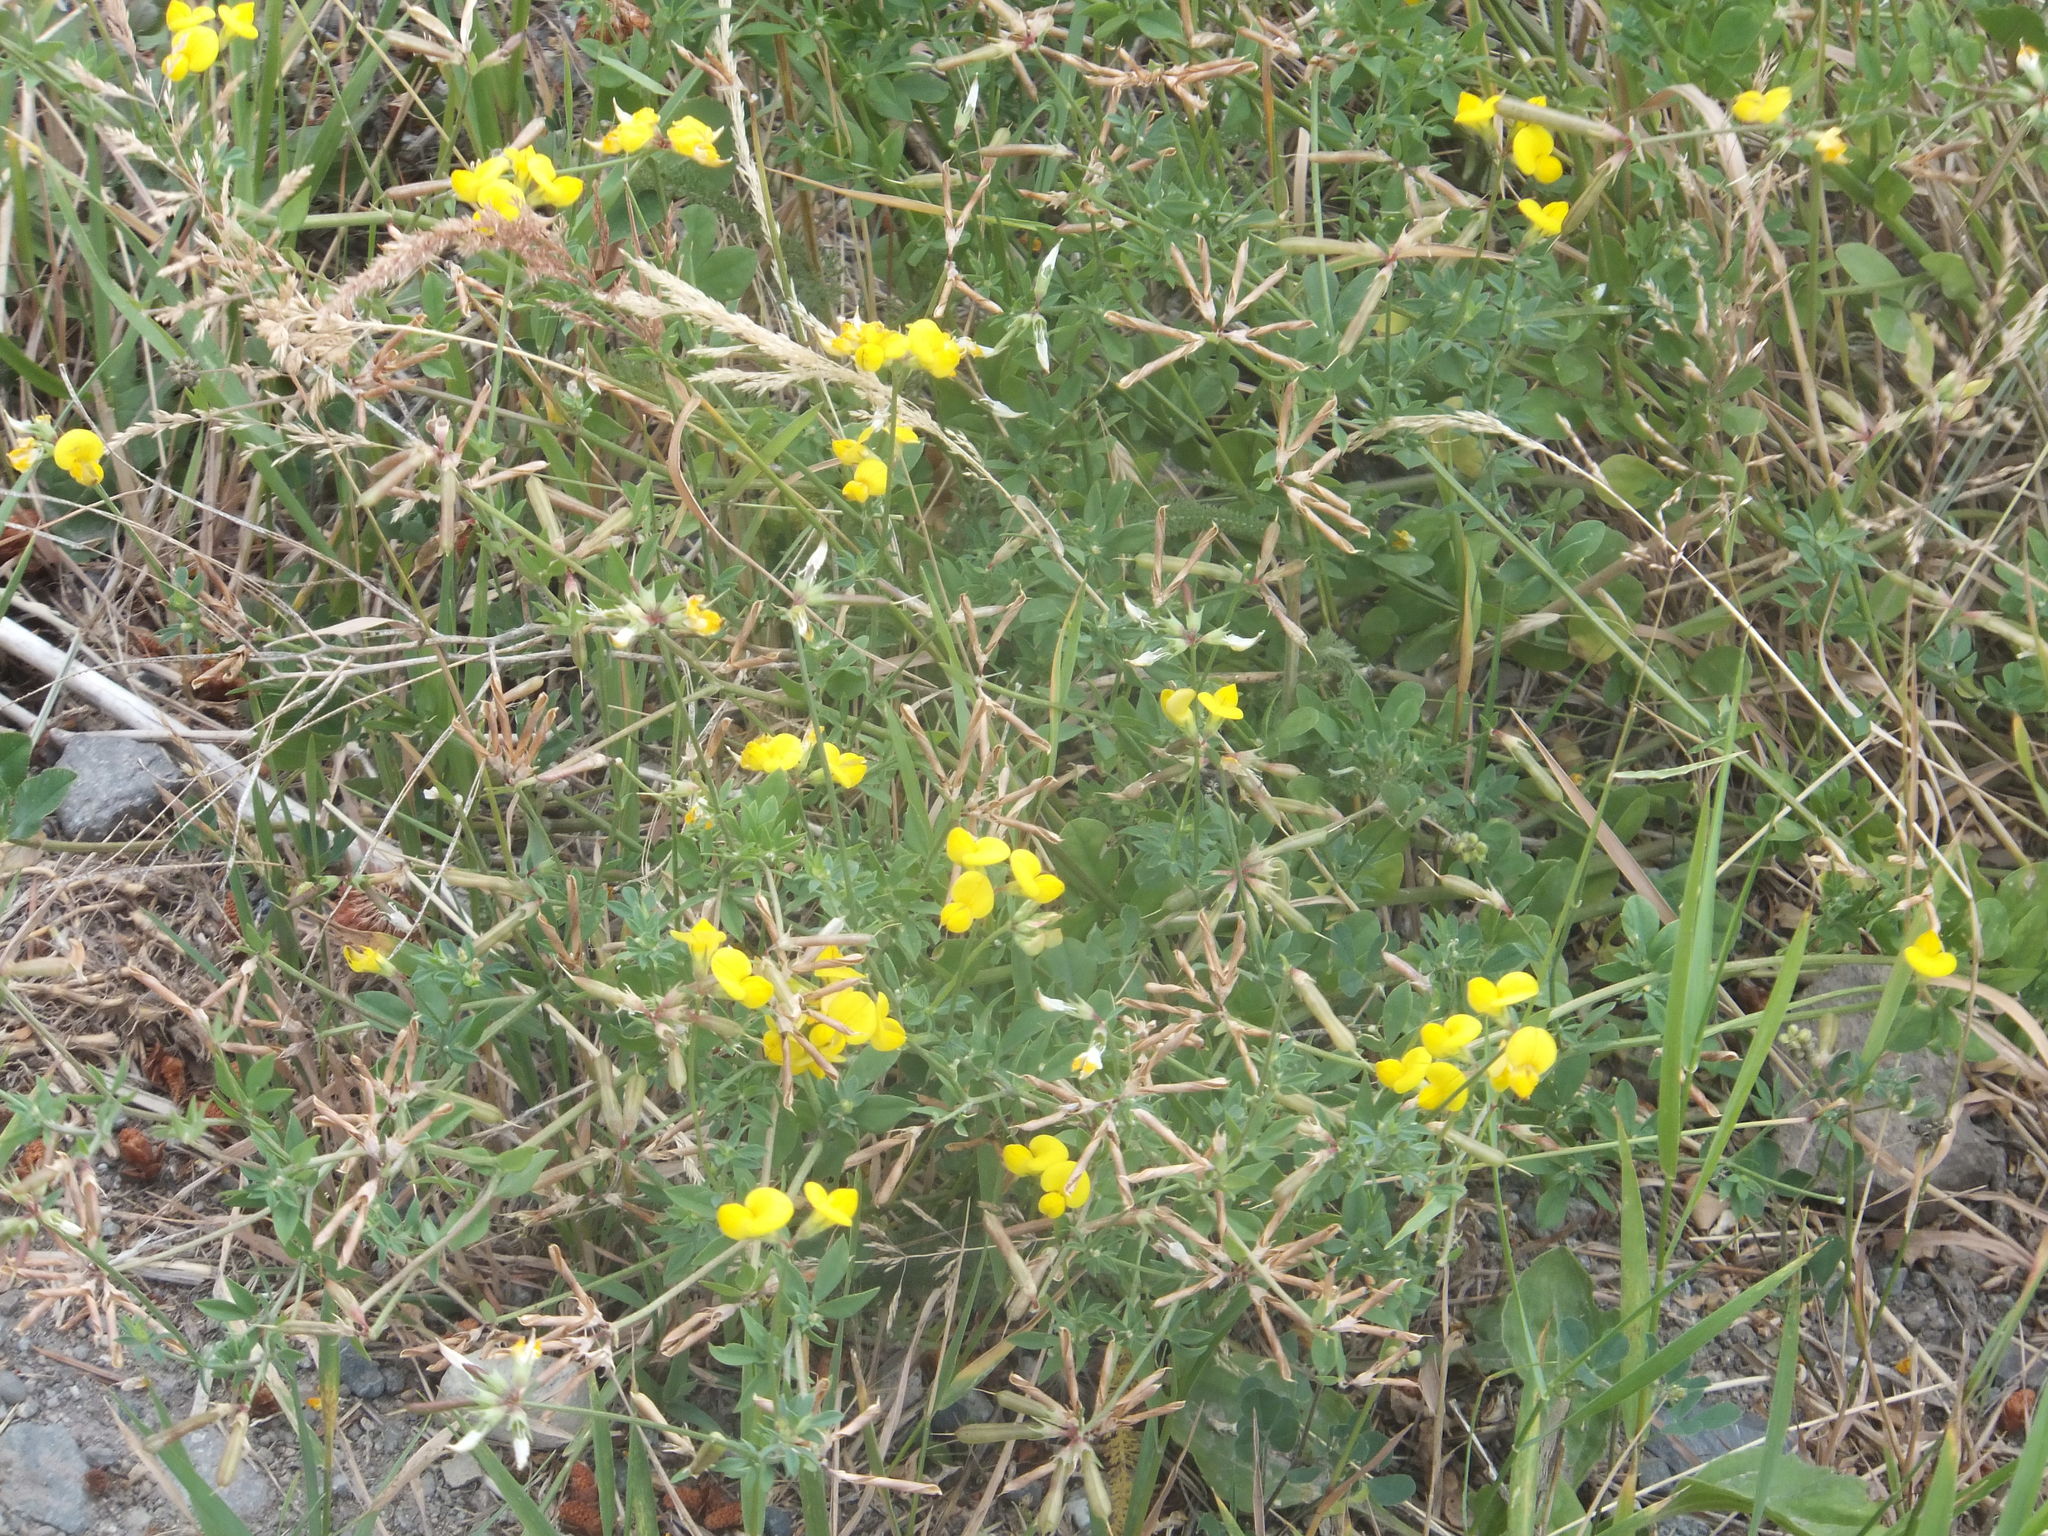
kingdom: Plantae
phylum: Tracheophyta
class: Magnoliopsida
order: Fabales
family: Fabaceae
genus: Lotus
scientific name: Lotus corniculatus
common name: Common bird's-foot-trefoil
